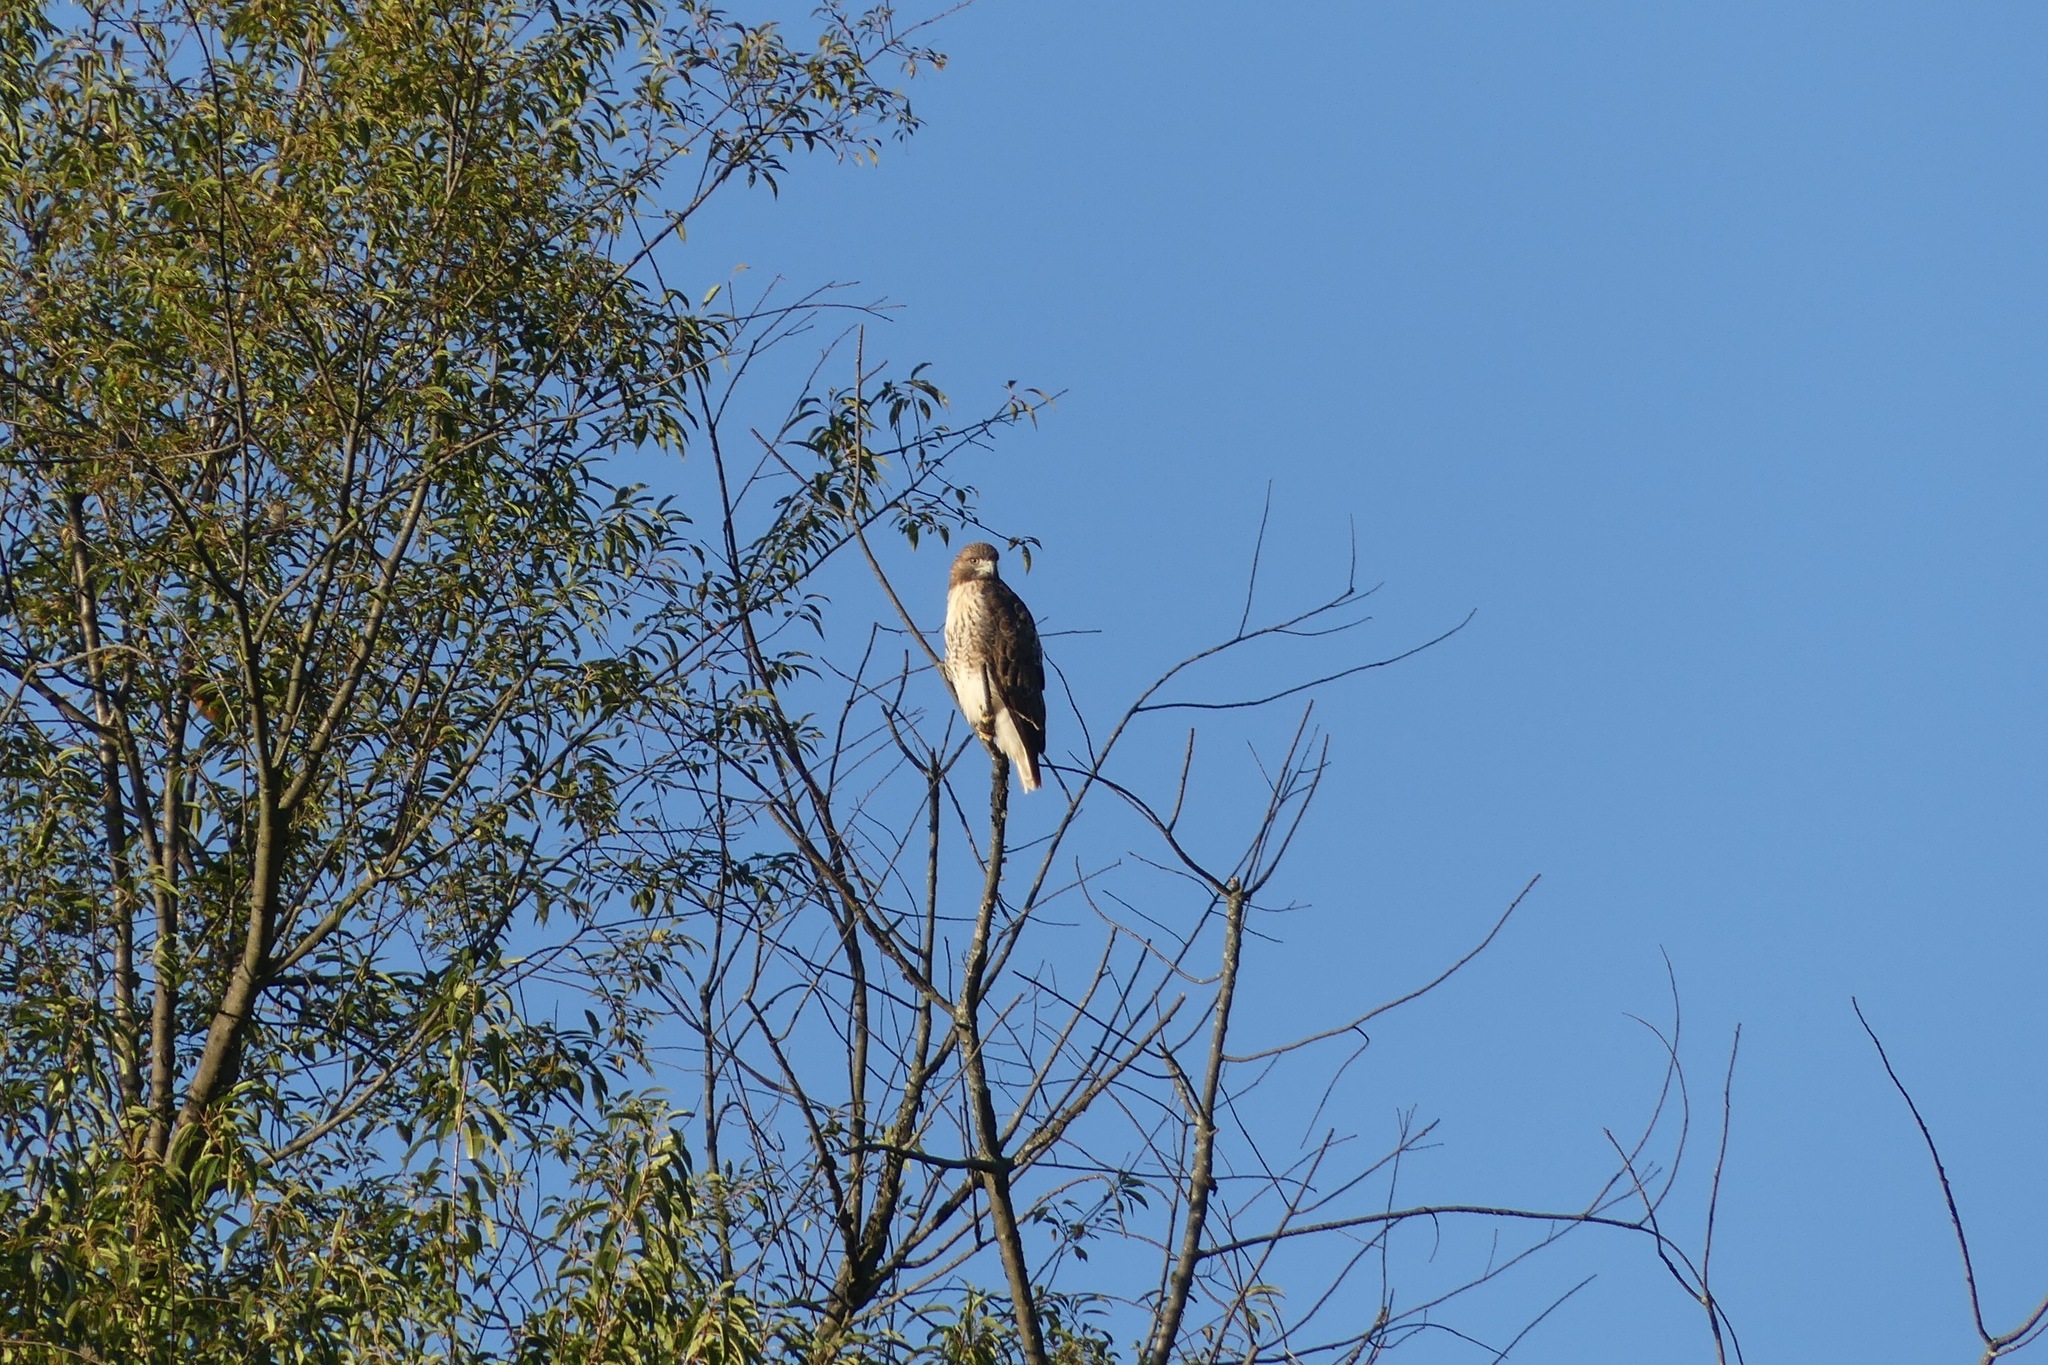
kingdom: Animalia
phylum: Chordata
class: Aves
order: Accipitriformes
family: Accipitridae
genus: Buteo
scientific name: Buteo jamaicensis
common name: Red-tailed hawk
